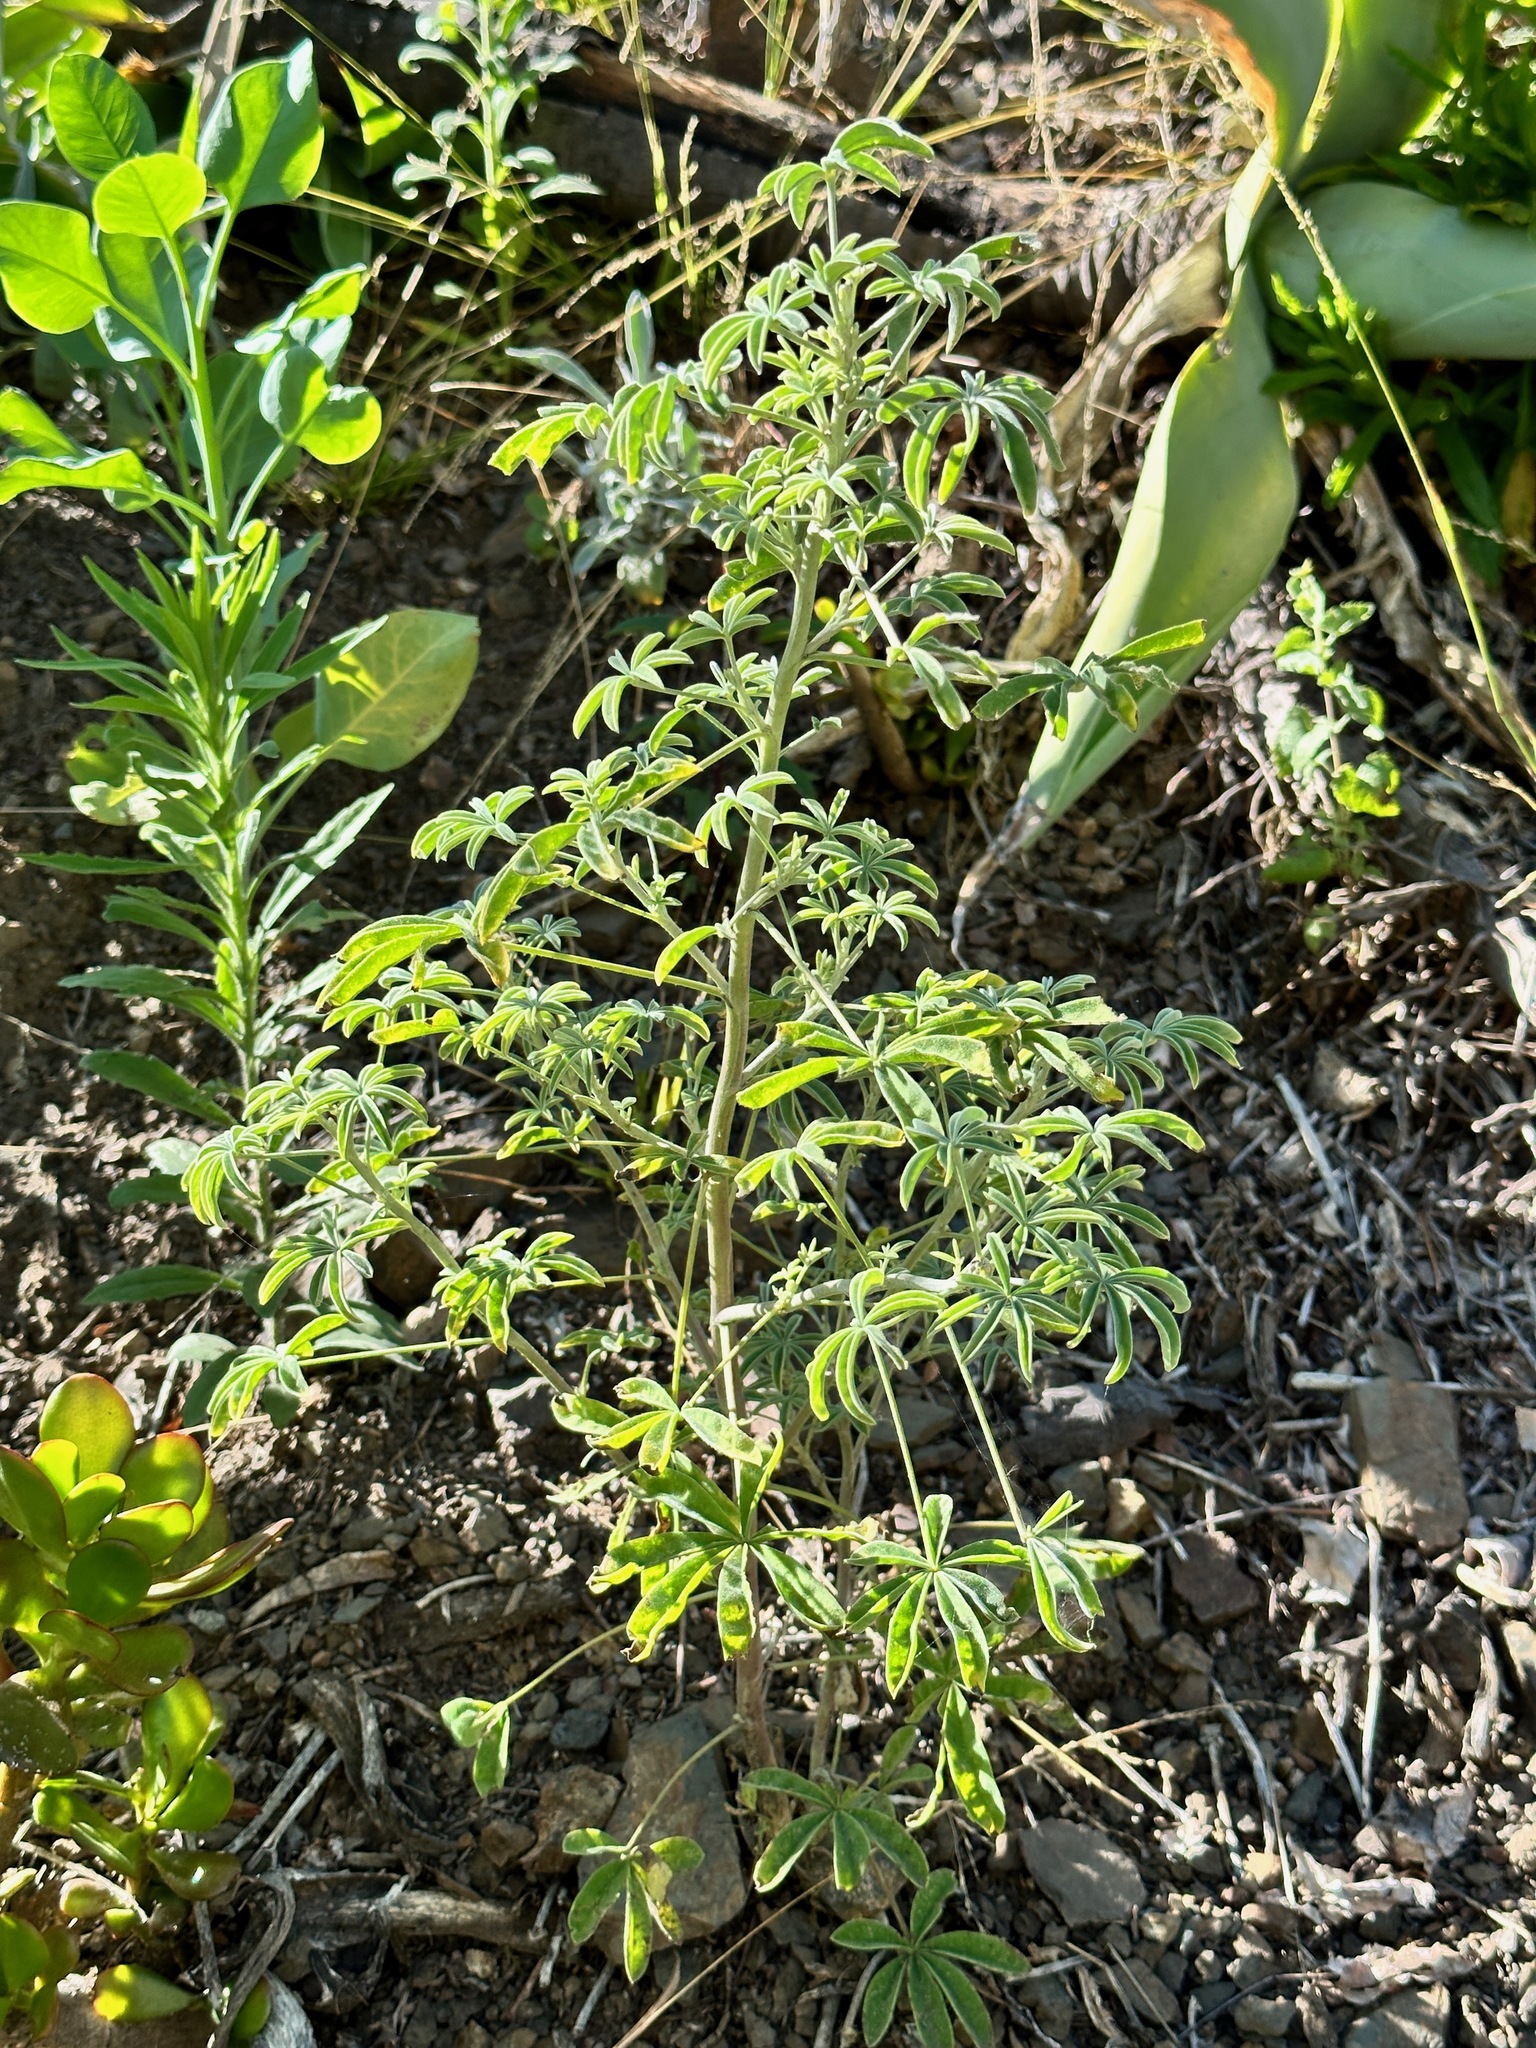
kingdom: Plantae
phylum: Tracheophyta
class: Magnoliopsida
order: Fabales
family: Fabaceae
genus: Lupinus
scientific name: Lupinus longifolius
